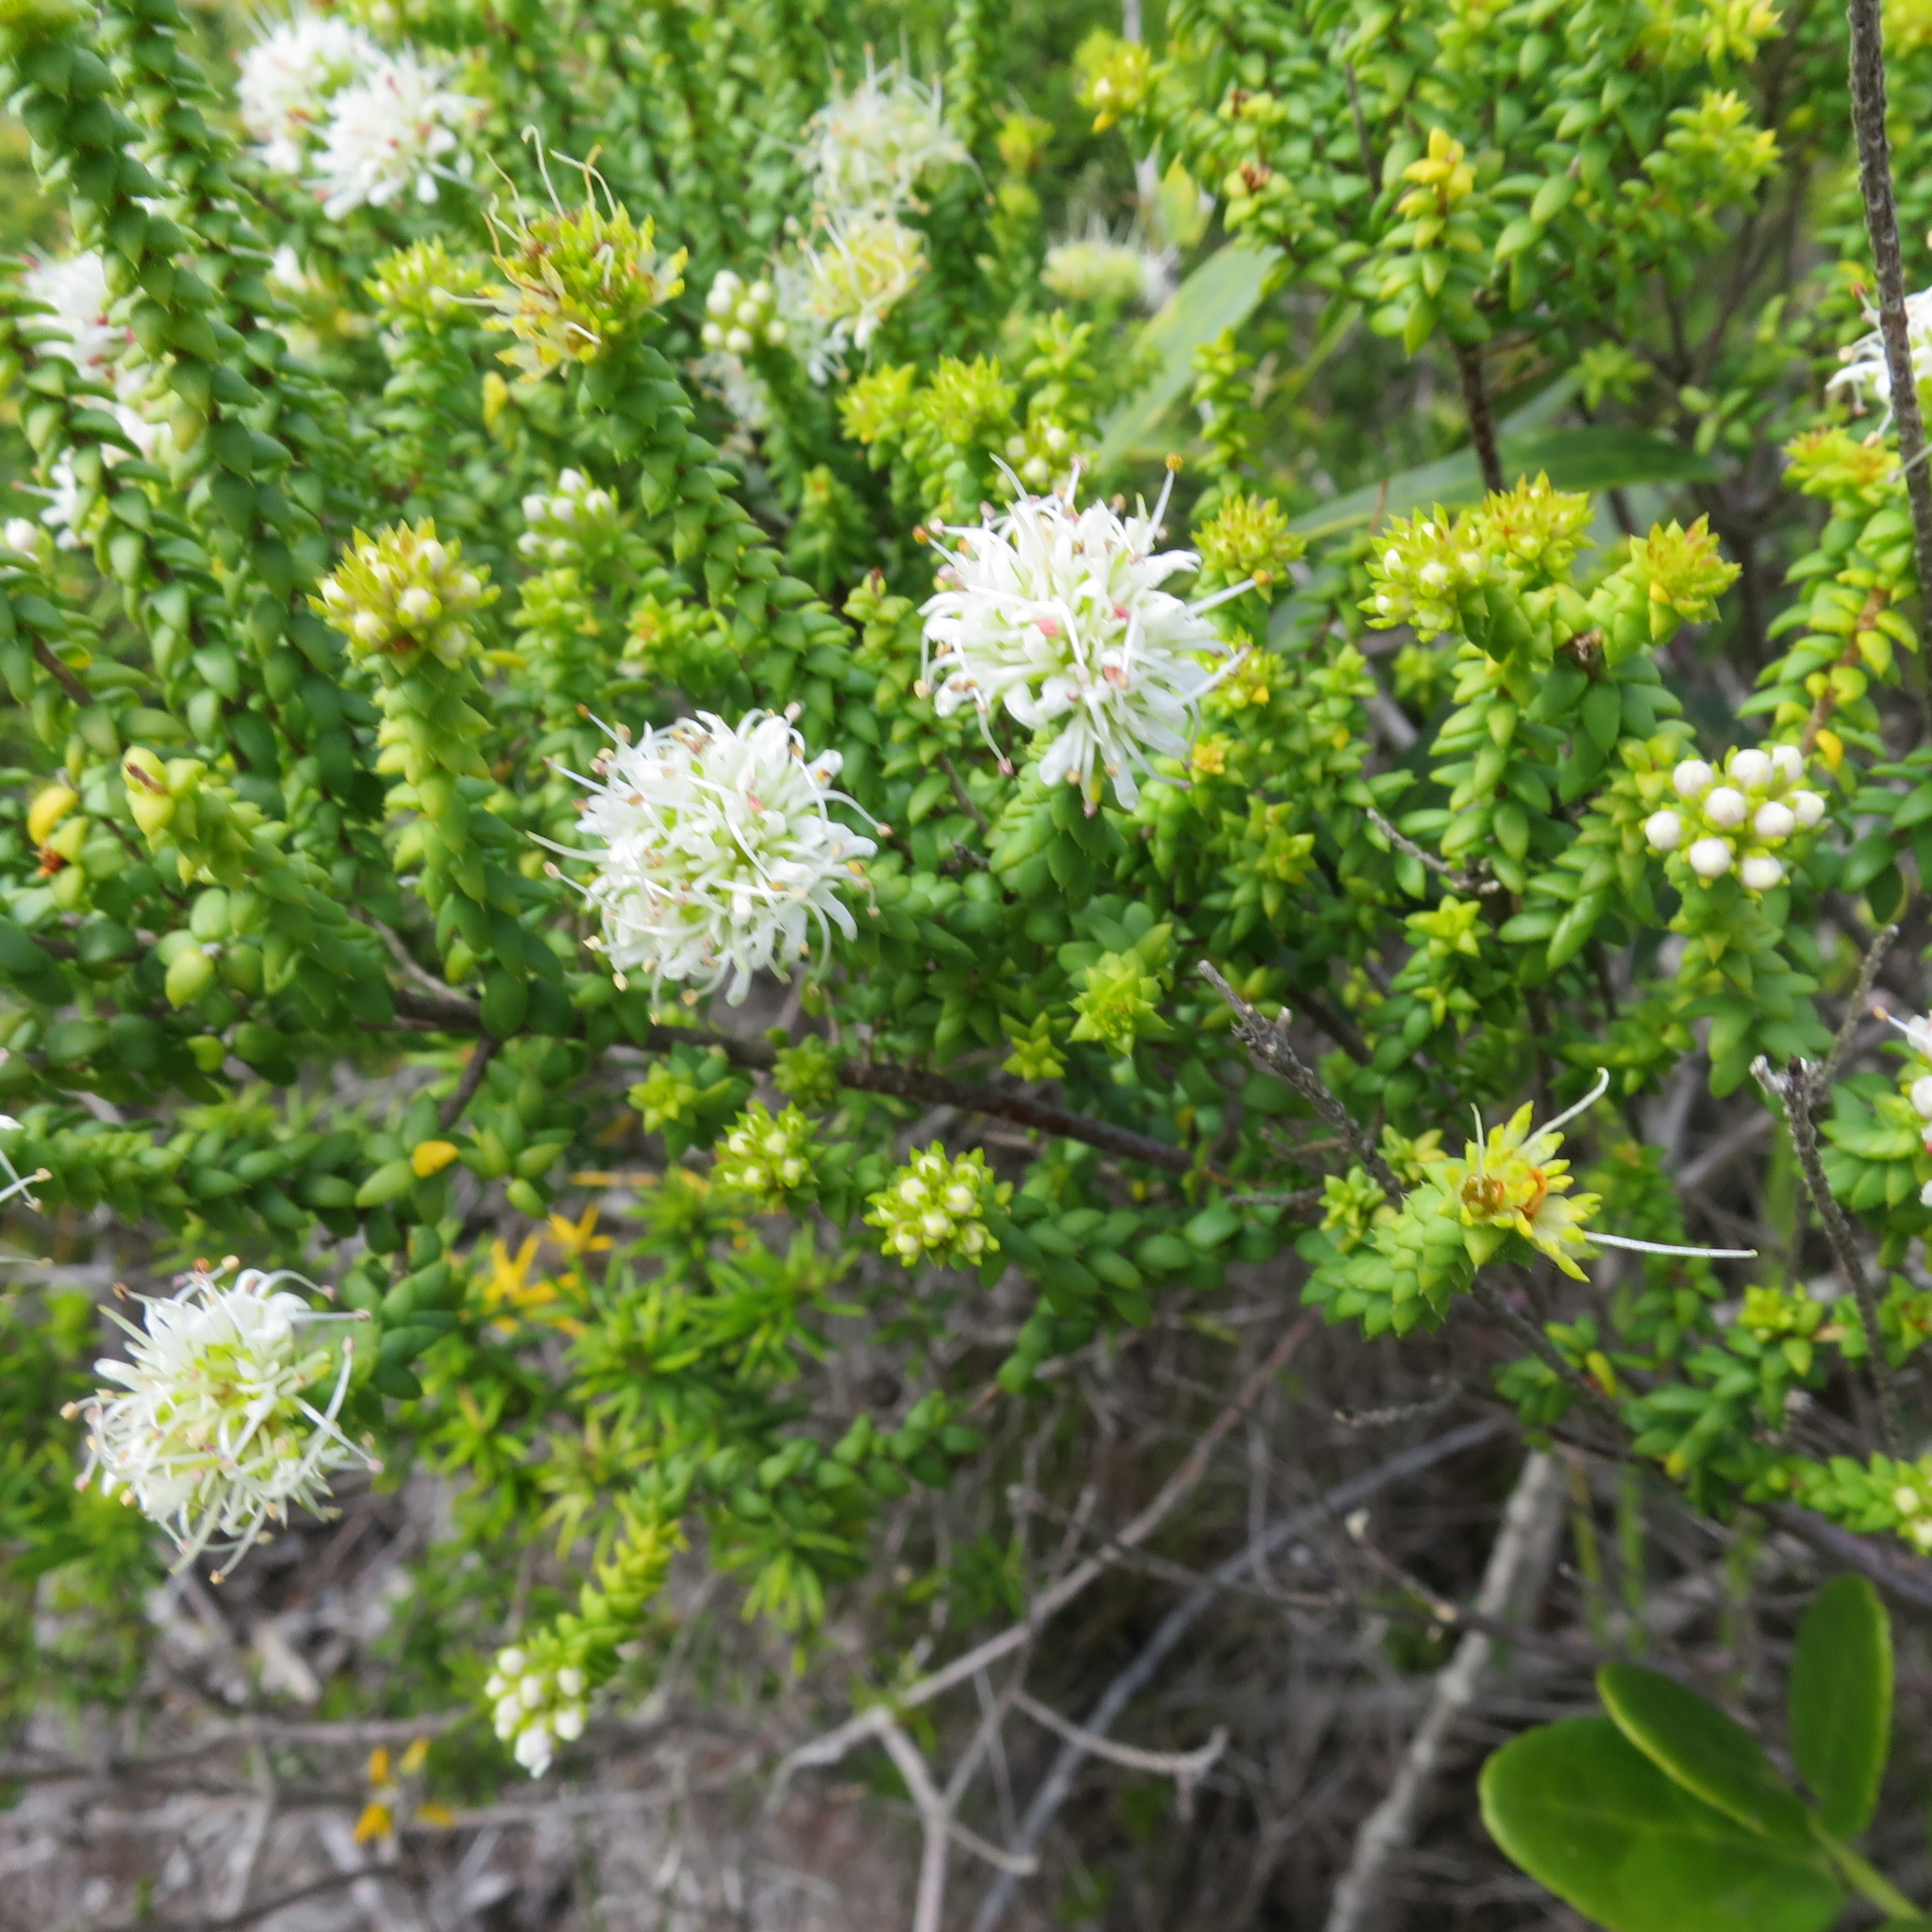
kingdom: Plantae
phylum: Tracheophyta
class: Magnoliopsida
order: Sapindales
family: Rutaceae
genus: Agathosma
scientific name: Agathosma apiculata
